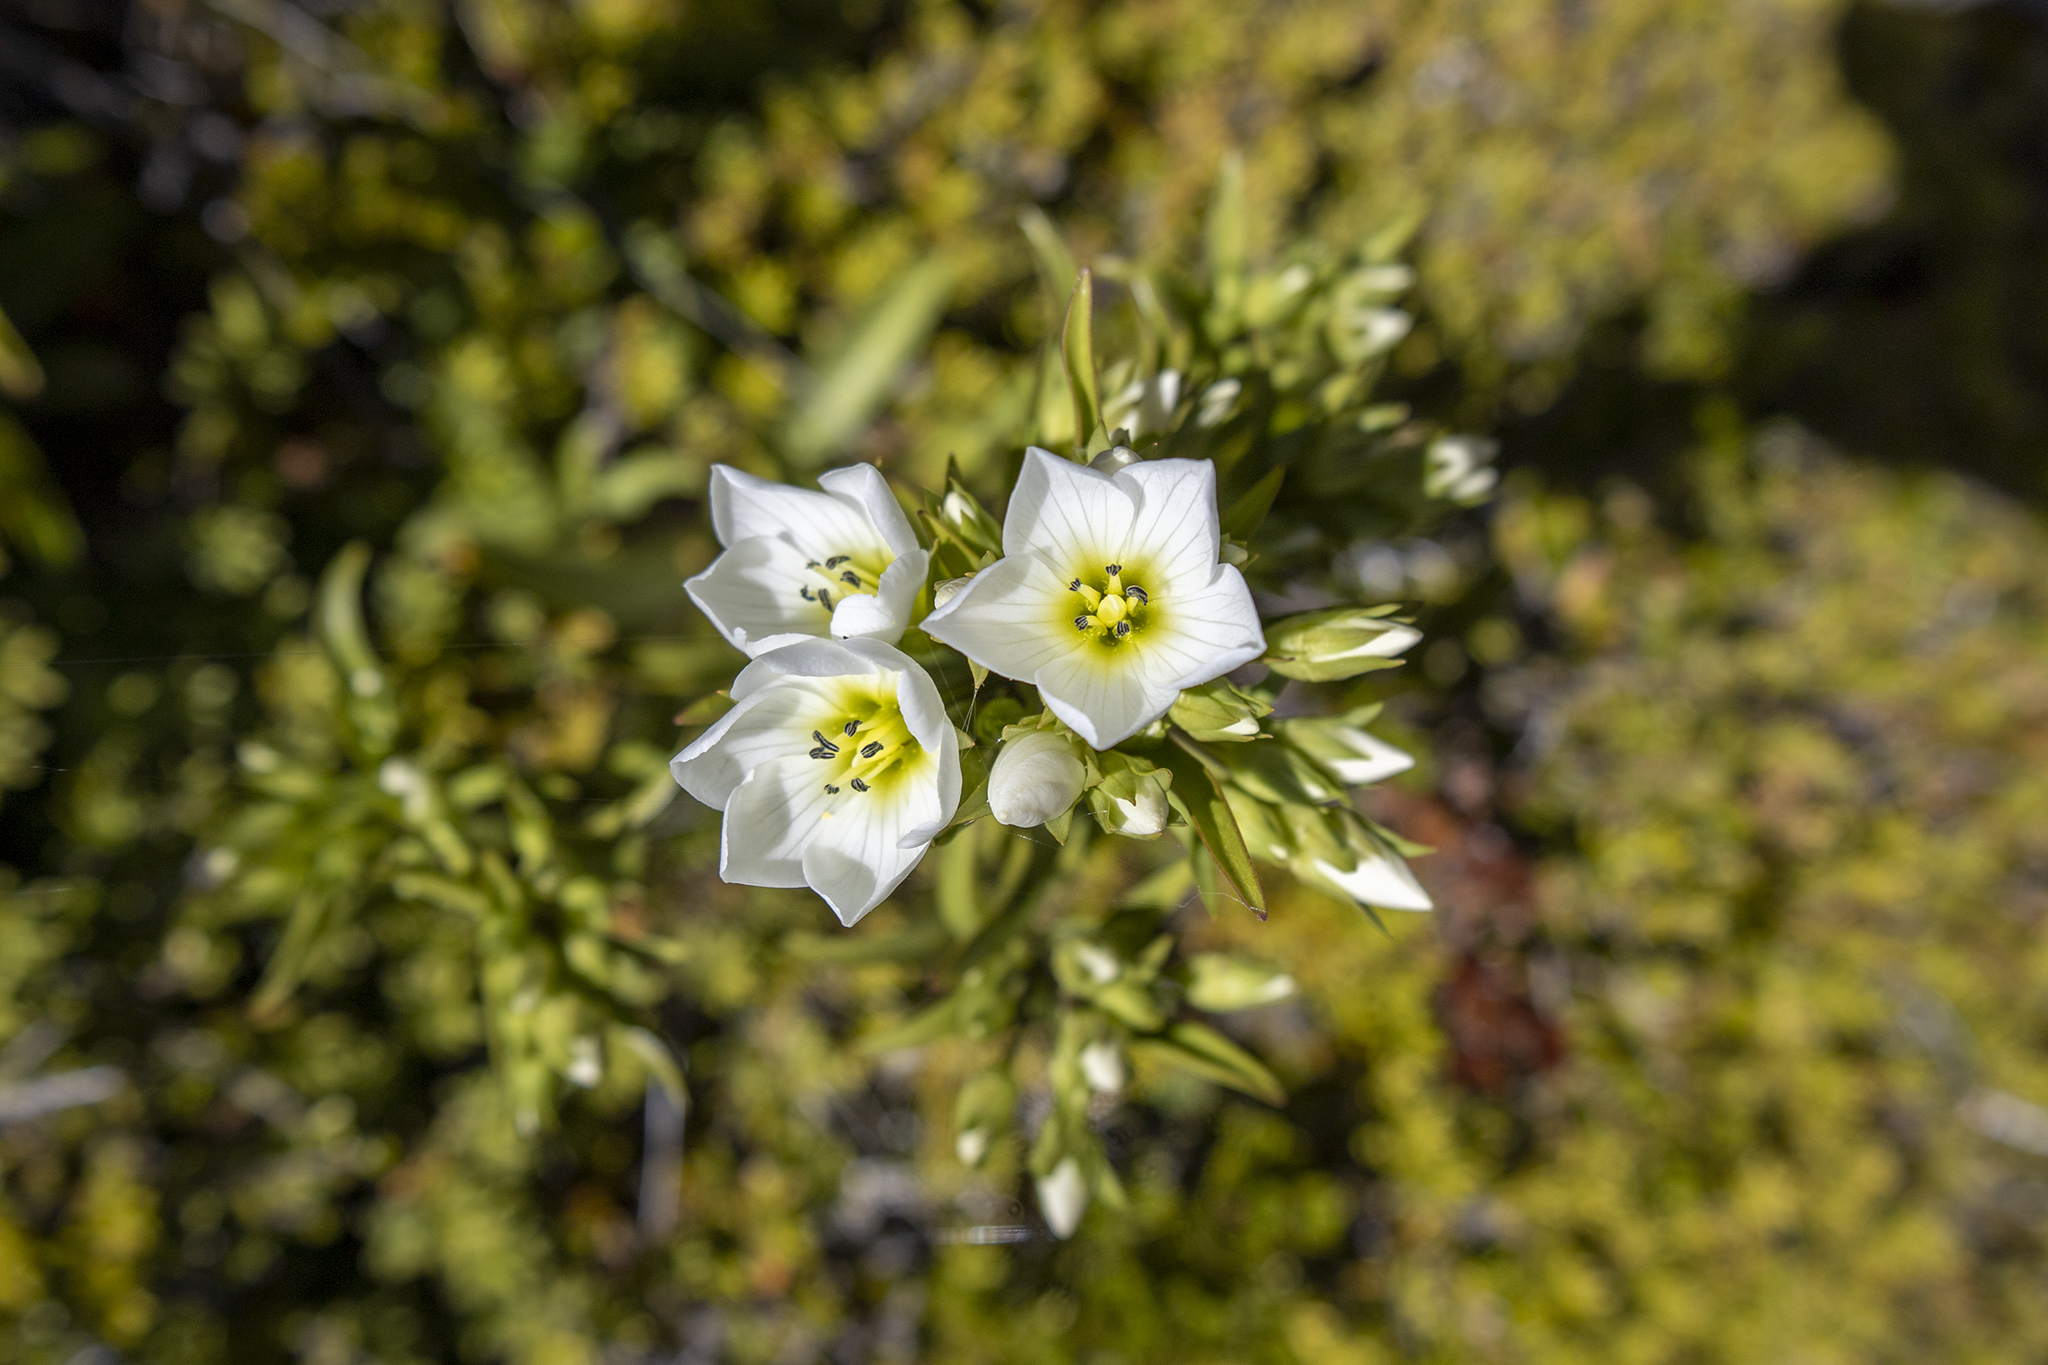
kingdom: Plantae
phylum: Tracheophyta
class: Magnoliopsida
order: Gentianales
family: Gentianaceae
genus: Gentianella
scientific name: Gentianella corymbifera
